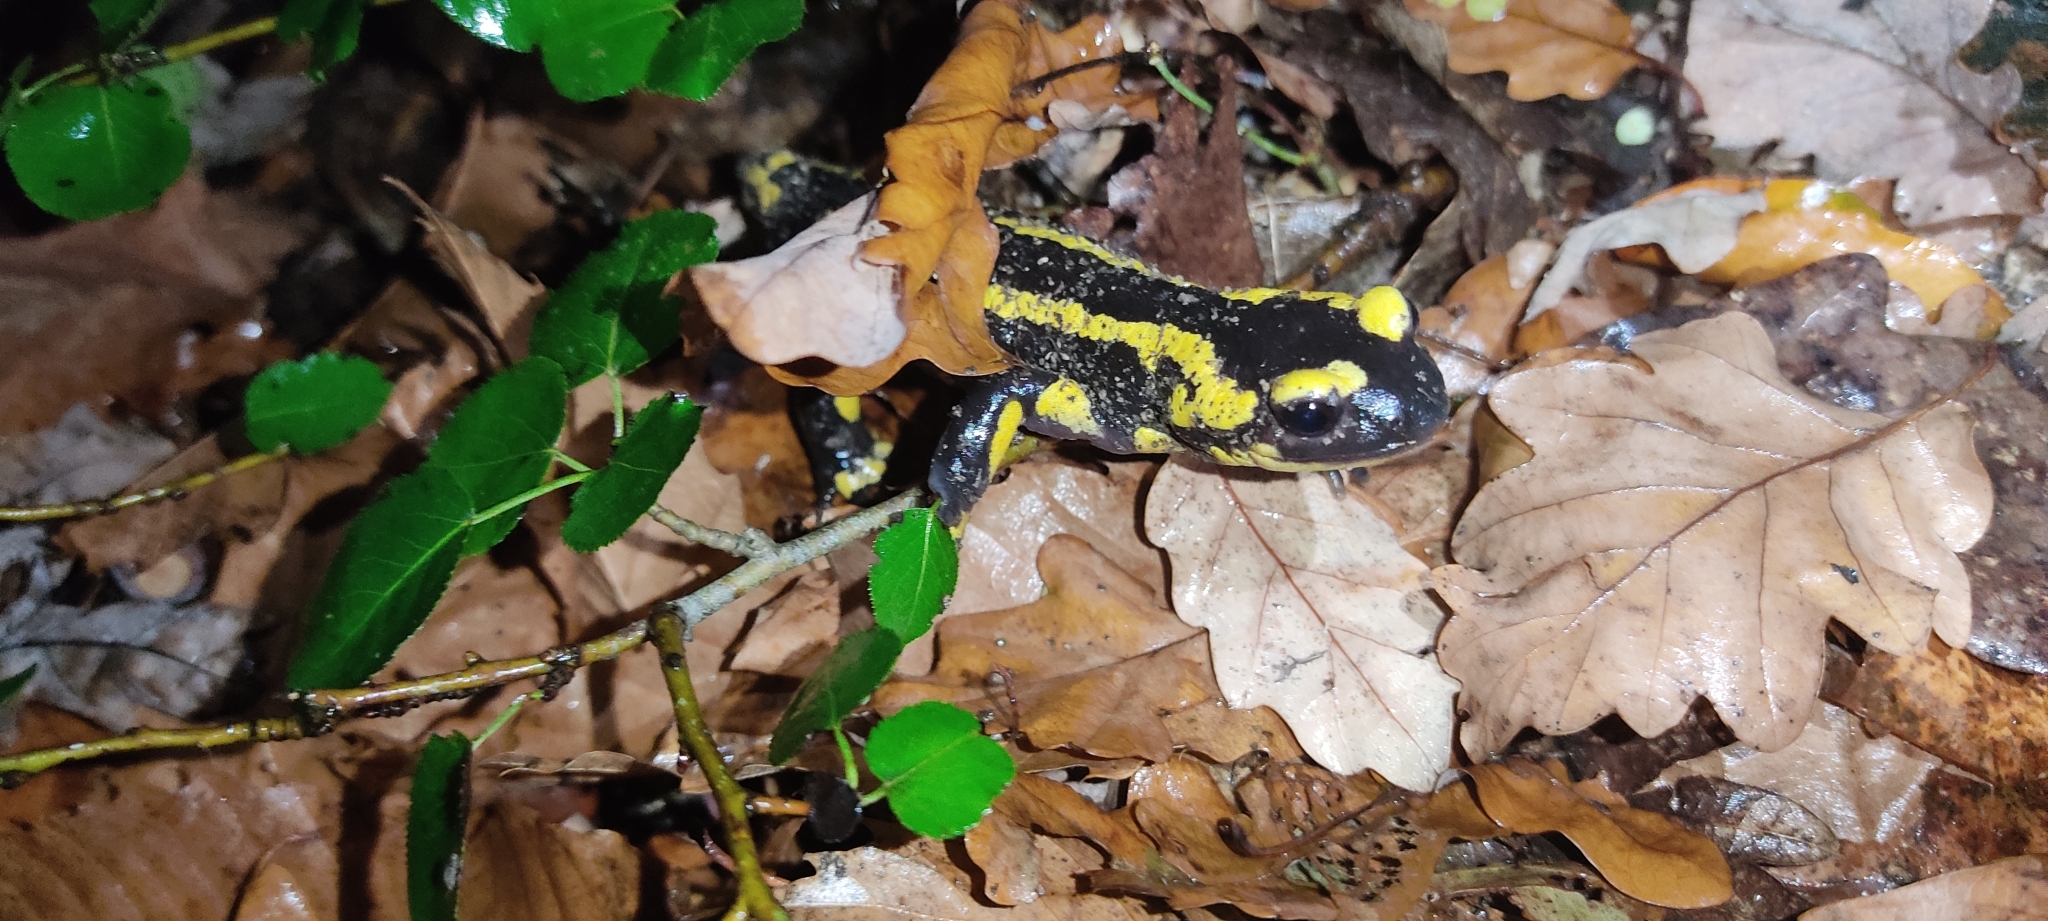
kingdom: Animalia
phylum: Chordata
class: Amphibia
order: Caudata
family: Salamandridae
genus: Salamandra
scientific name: Salamandra salamandra
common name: Fire salamander
